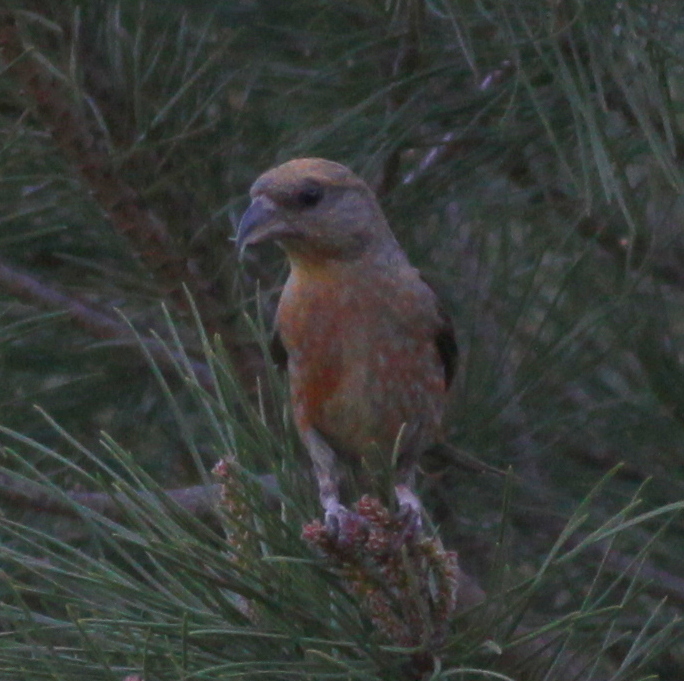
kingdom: Animalia
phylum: Chordata
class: Aves
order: Passeriformes
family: Fringillidae
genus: Loxia
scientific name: Loxia curvirostra
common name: Red crossbill
